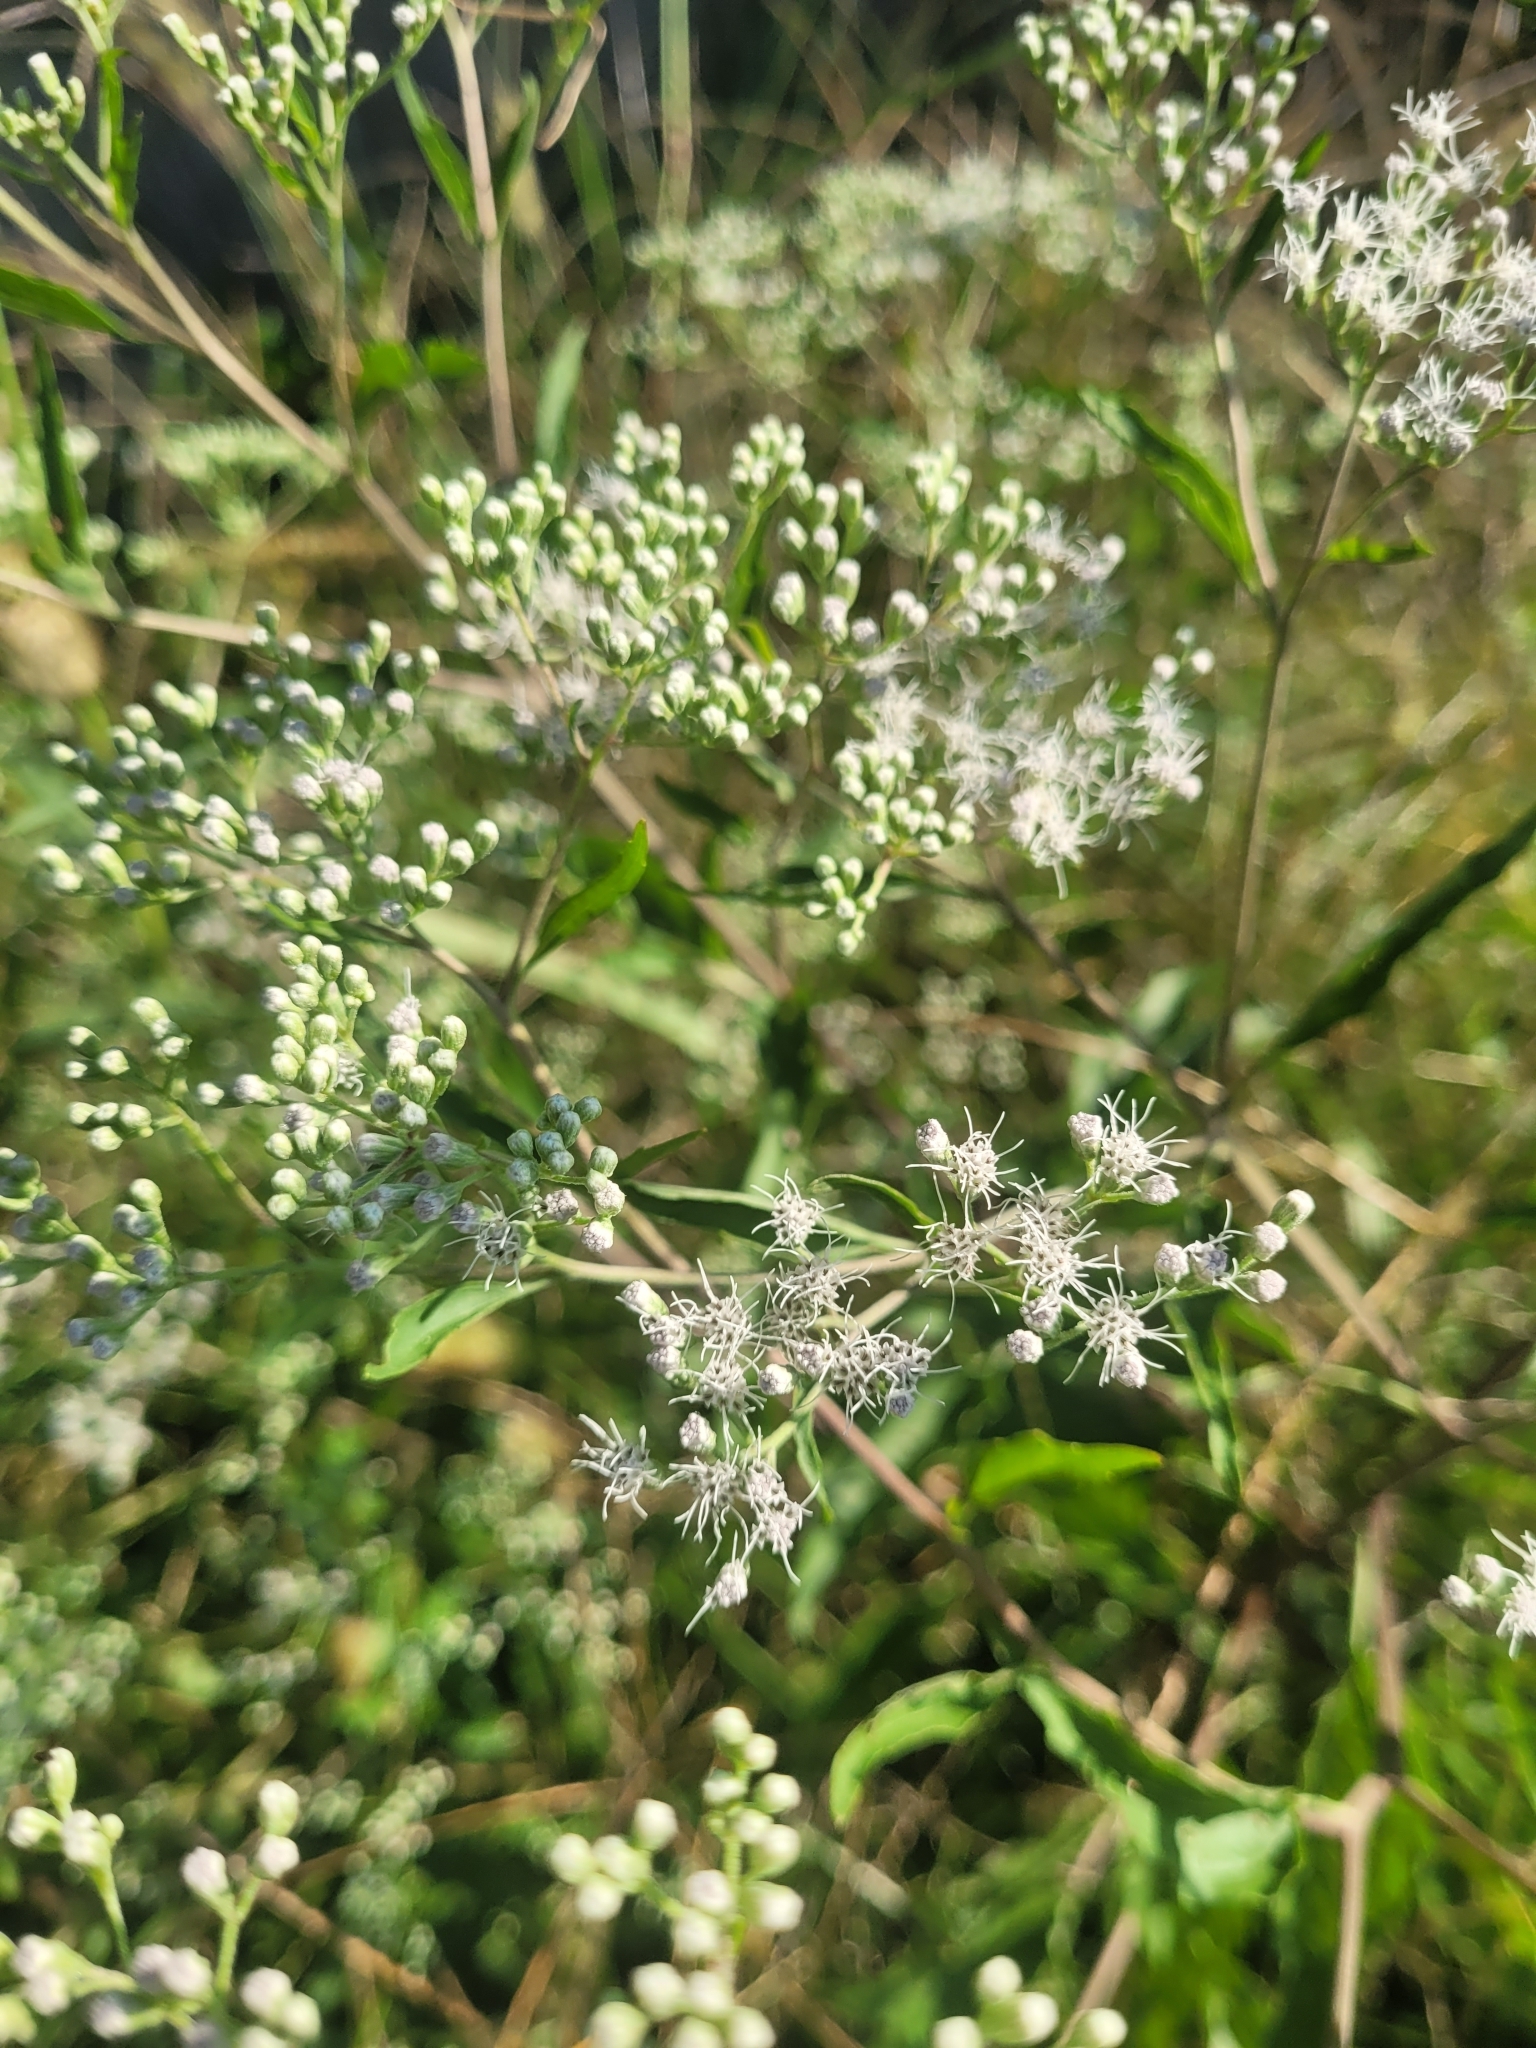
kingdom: Plantae
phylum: Tracheophyta
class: Magnoliopsida
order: Asterales
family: Asteraceae
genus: Eupatorium
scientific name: Eupatorium serotinum
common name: Late boneset
